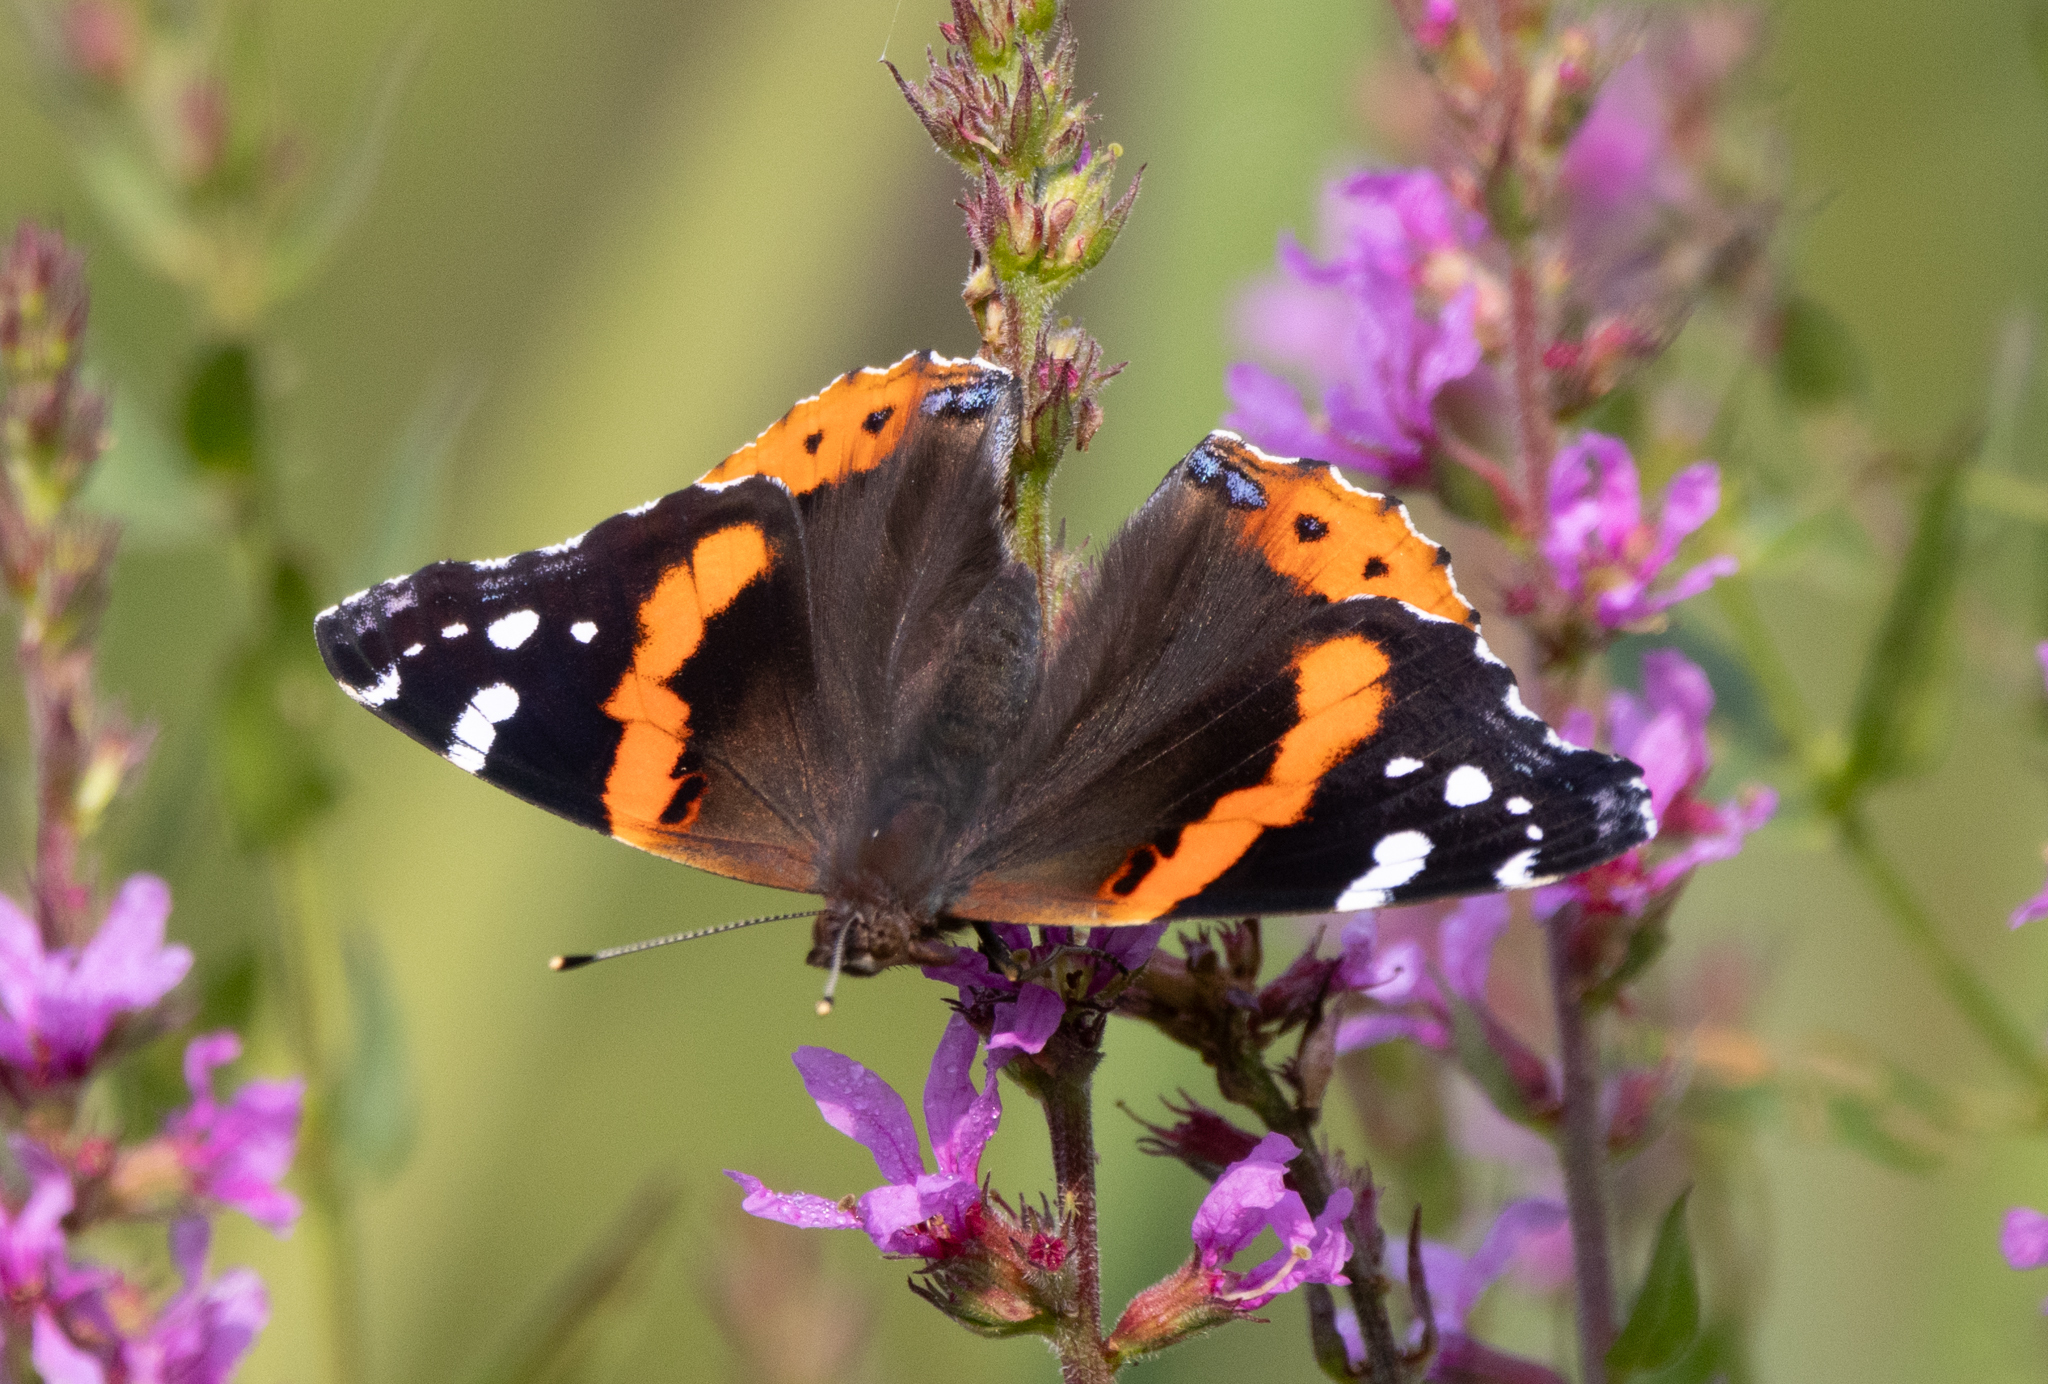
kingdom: Animalia
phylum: Arthropoda
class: Insecta
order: Lepidoptera
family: Nymphalidae
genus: Vanessa
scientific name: Vanessa atalanta
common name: Red admiral
